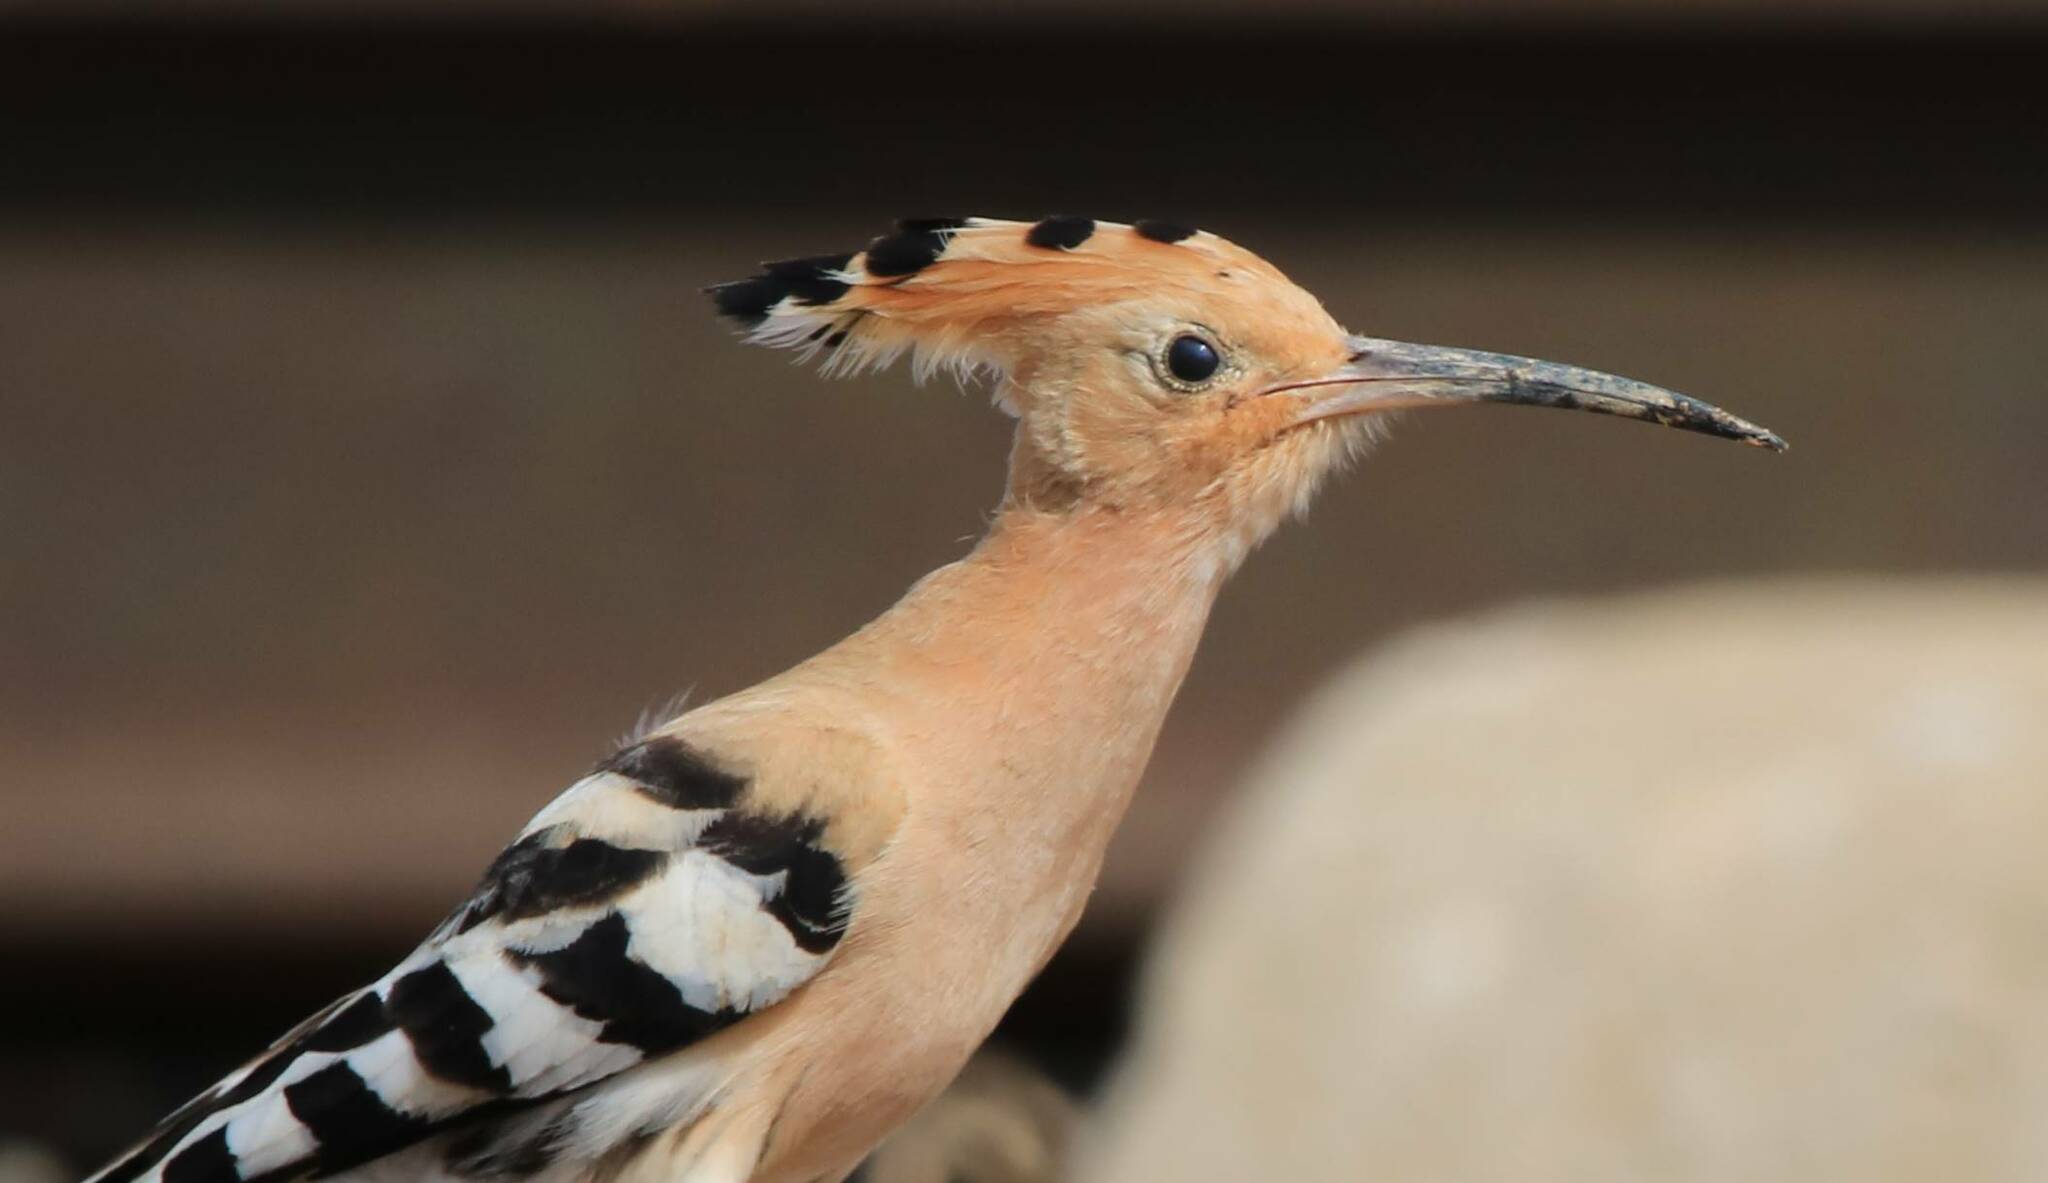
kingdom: Animalia
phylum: Chordata
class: Aves
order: Bucerotiformes
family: Upupidae
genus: Upupa
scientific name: Upupa epops
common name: Eurasian hoopoe
